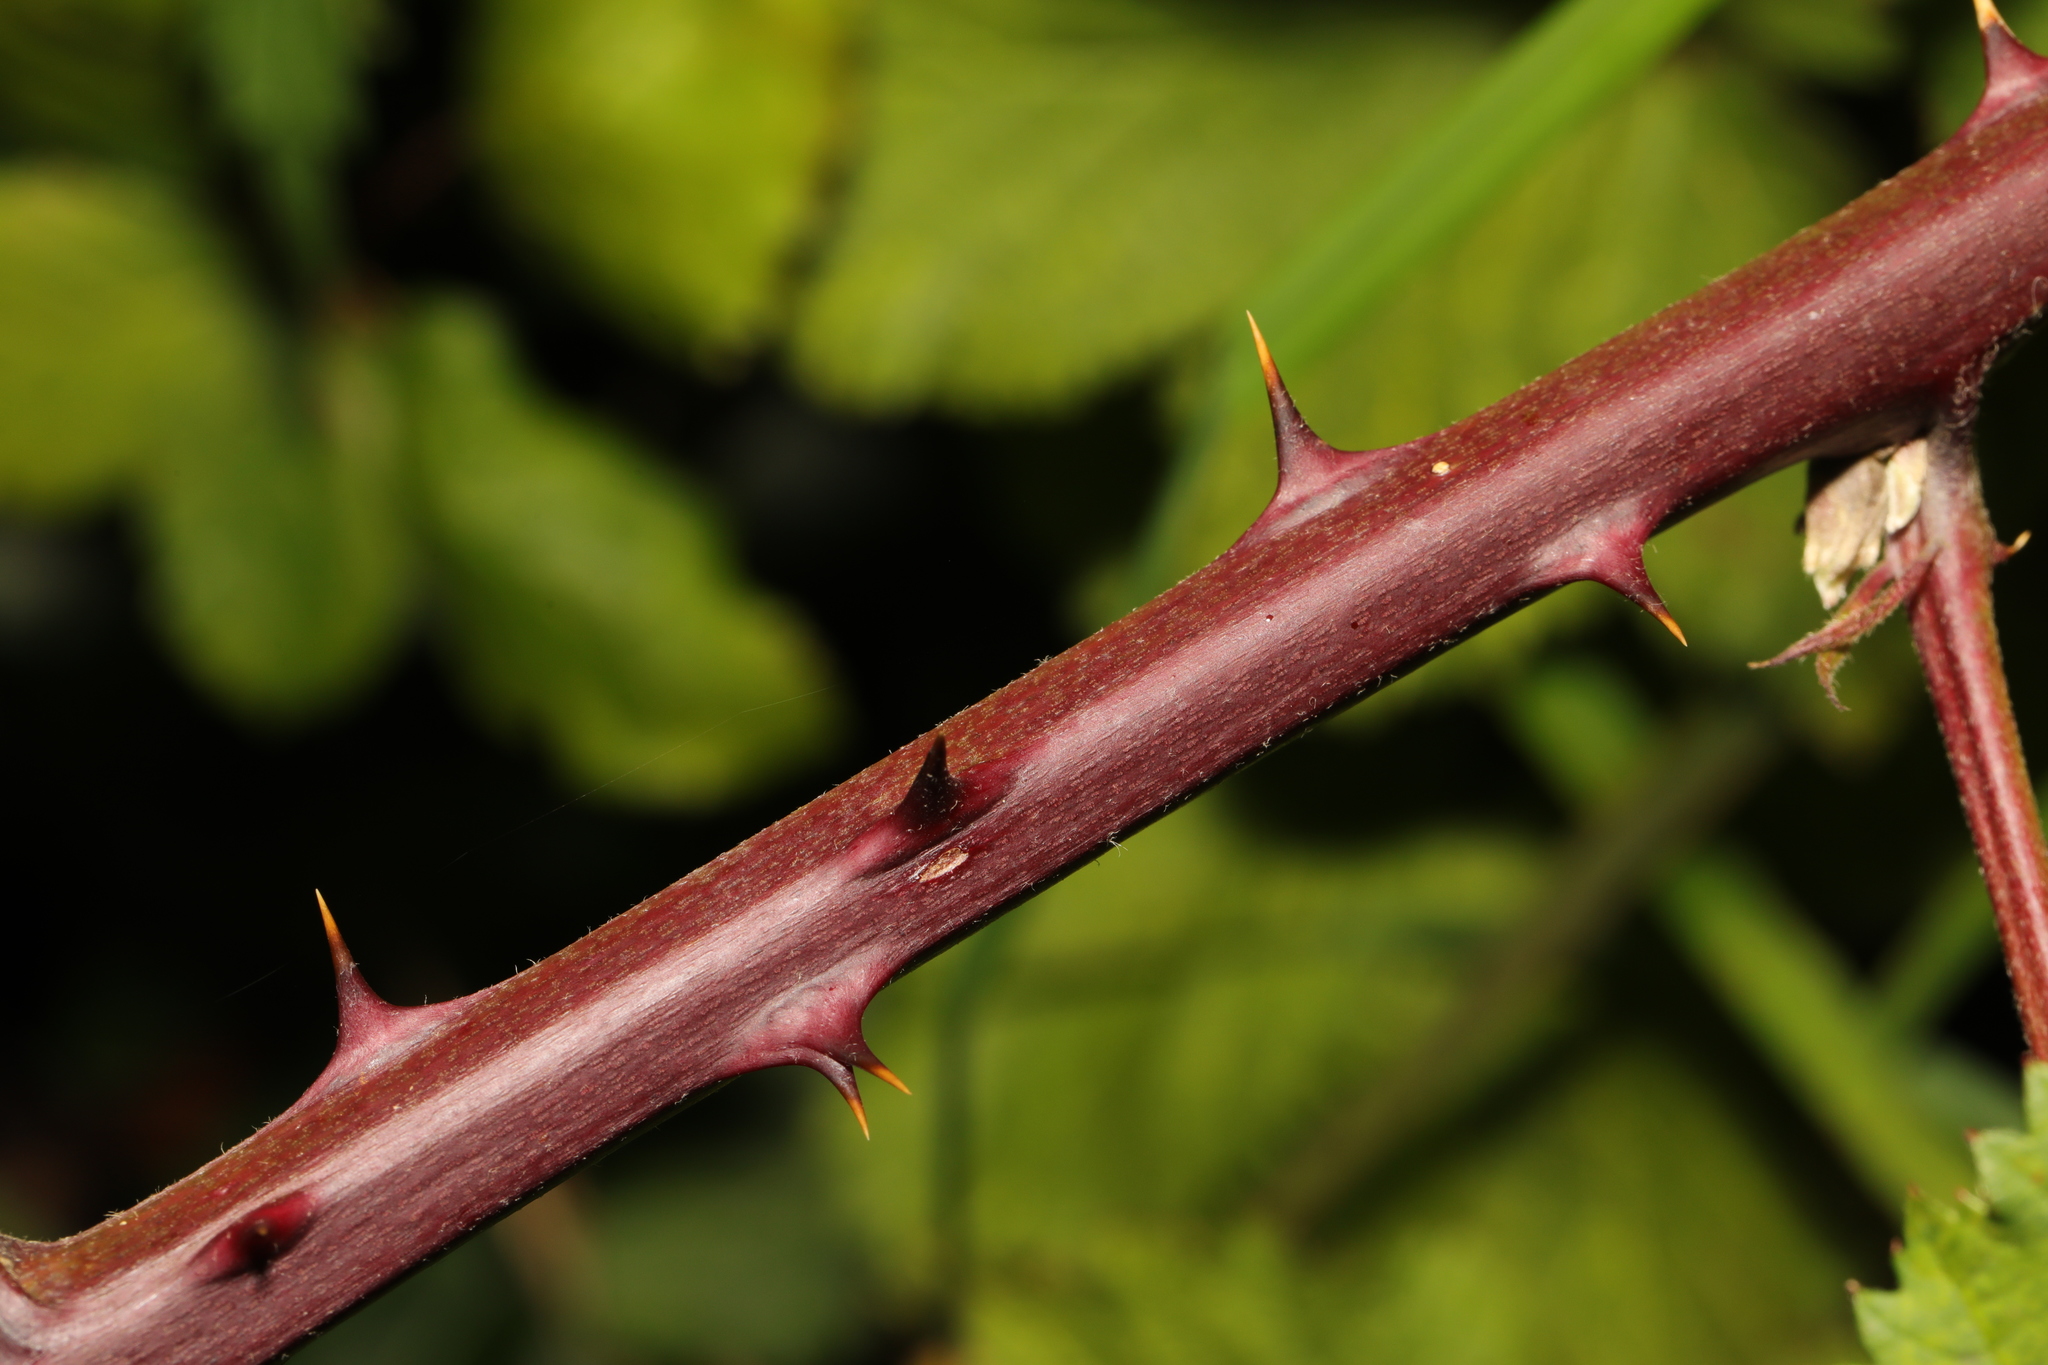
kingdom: Plantae
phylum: Tracheophyta
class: Magnoliopsida
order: Rosales
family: Rosaceae
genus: Rubus
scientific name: Rubus armeniacus
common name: Himalayan blackberry
